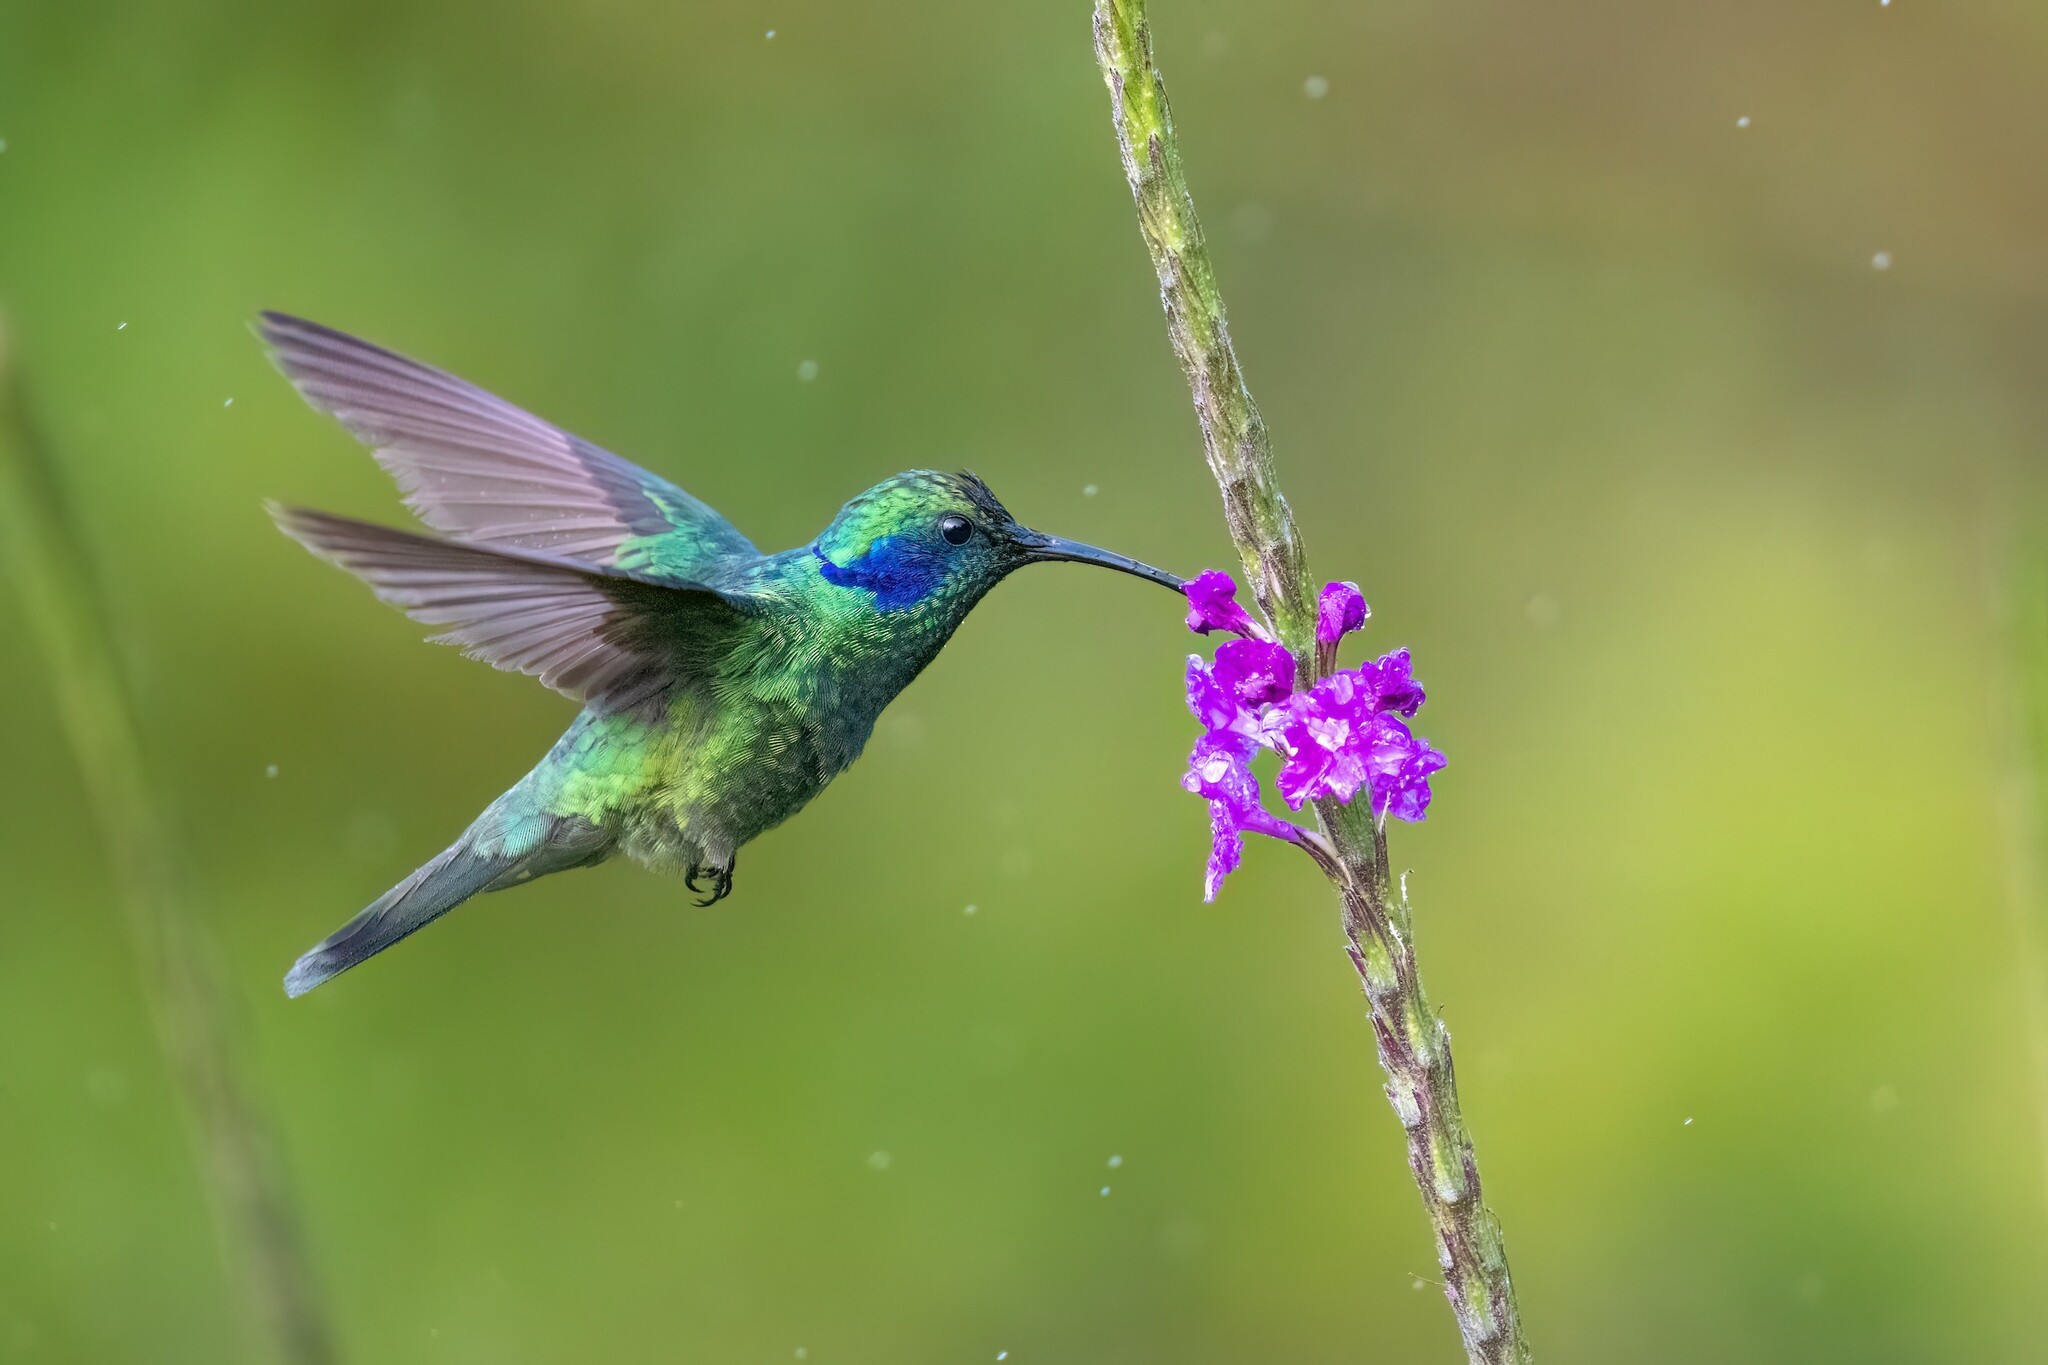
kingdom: Animalia
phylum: Chordata
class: Aves
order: Apodiformes
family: Trochilidae
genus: Colibri
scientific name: Colibri cyanotus
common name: Lesser violetear
